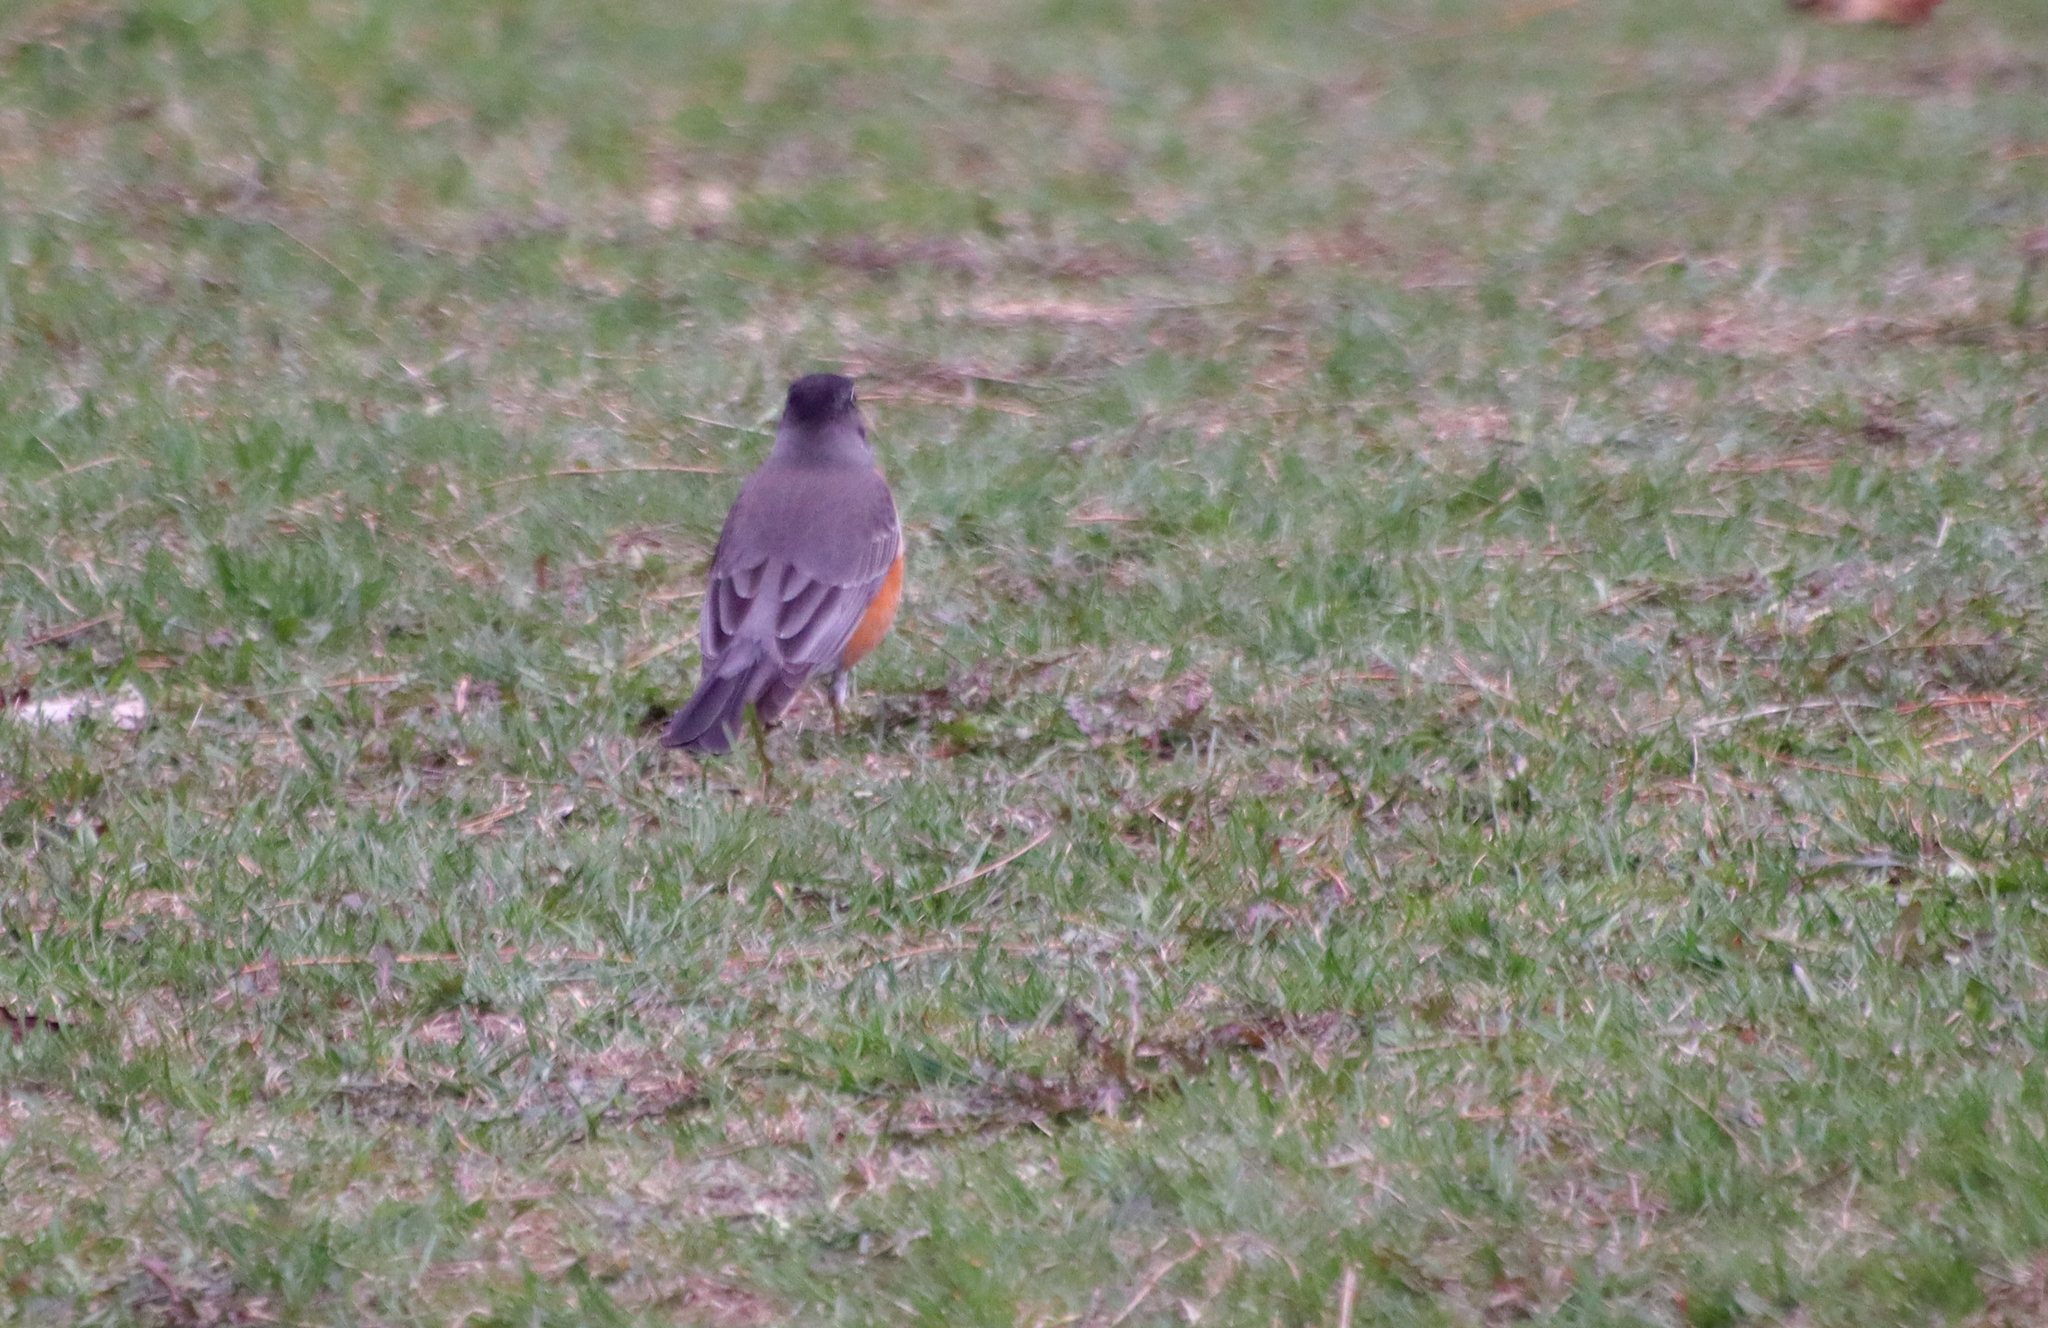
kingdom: Animalia
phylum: Chordata
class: Aves
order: Passeriformes
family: Turdidae
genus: Turdus
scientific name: Turdus migratorius
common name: American robin
